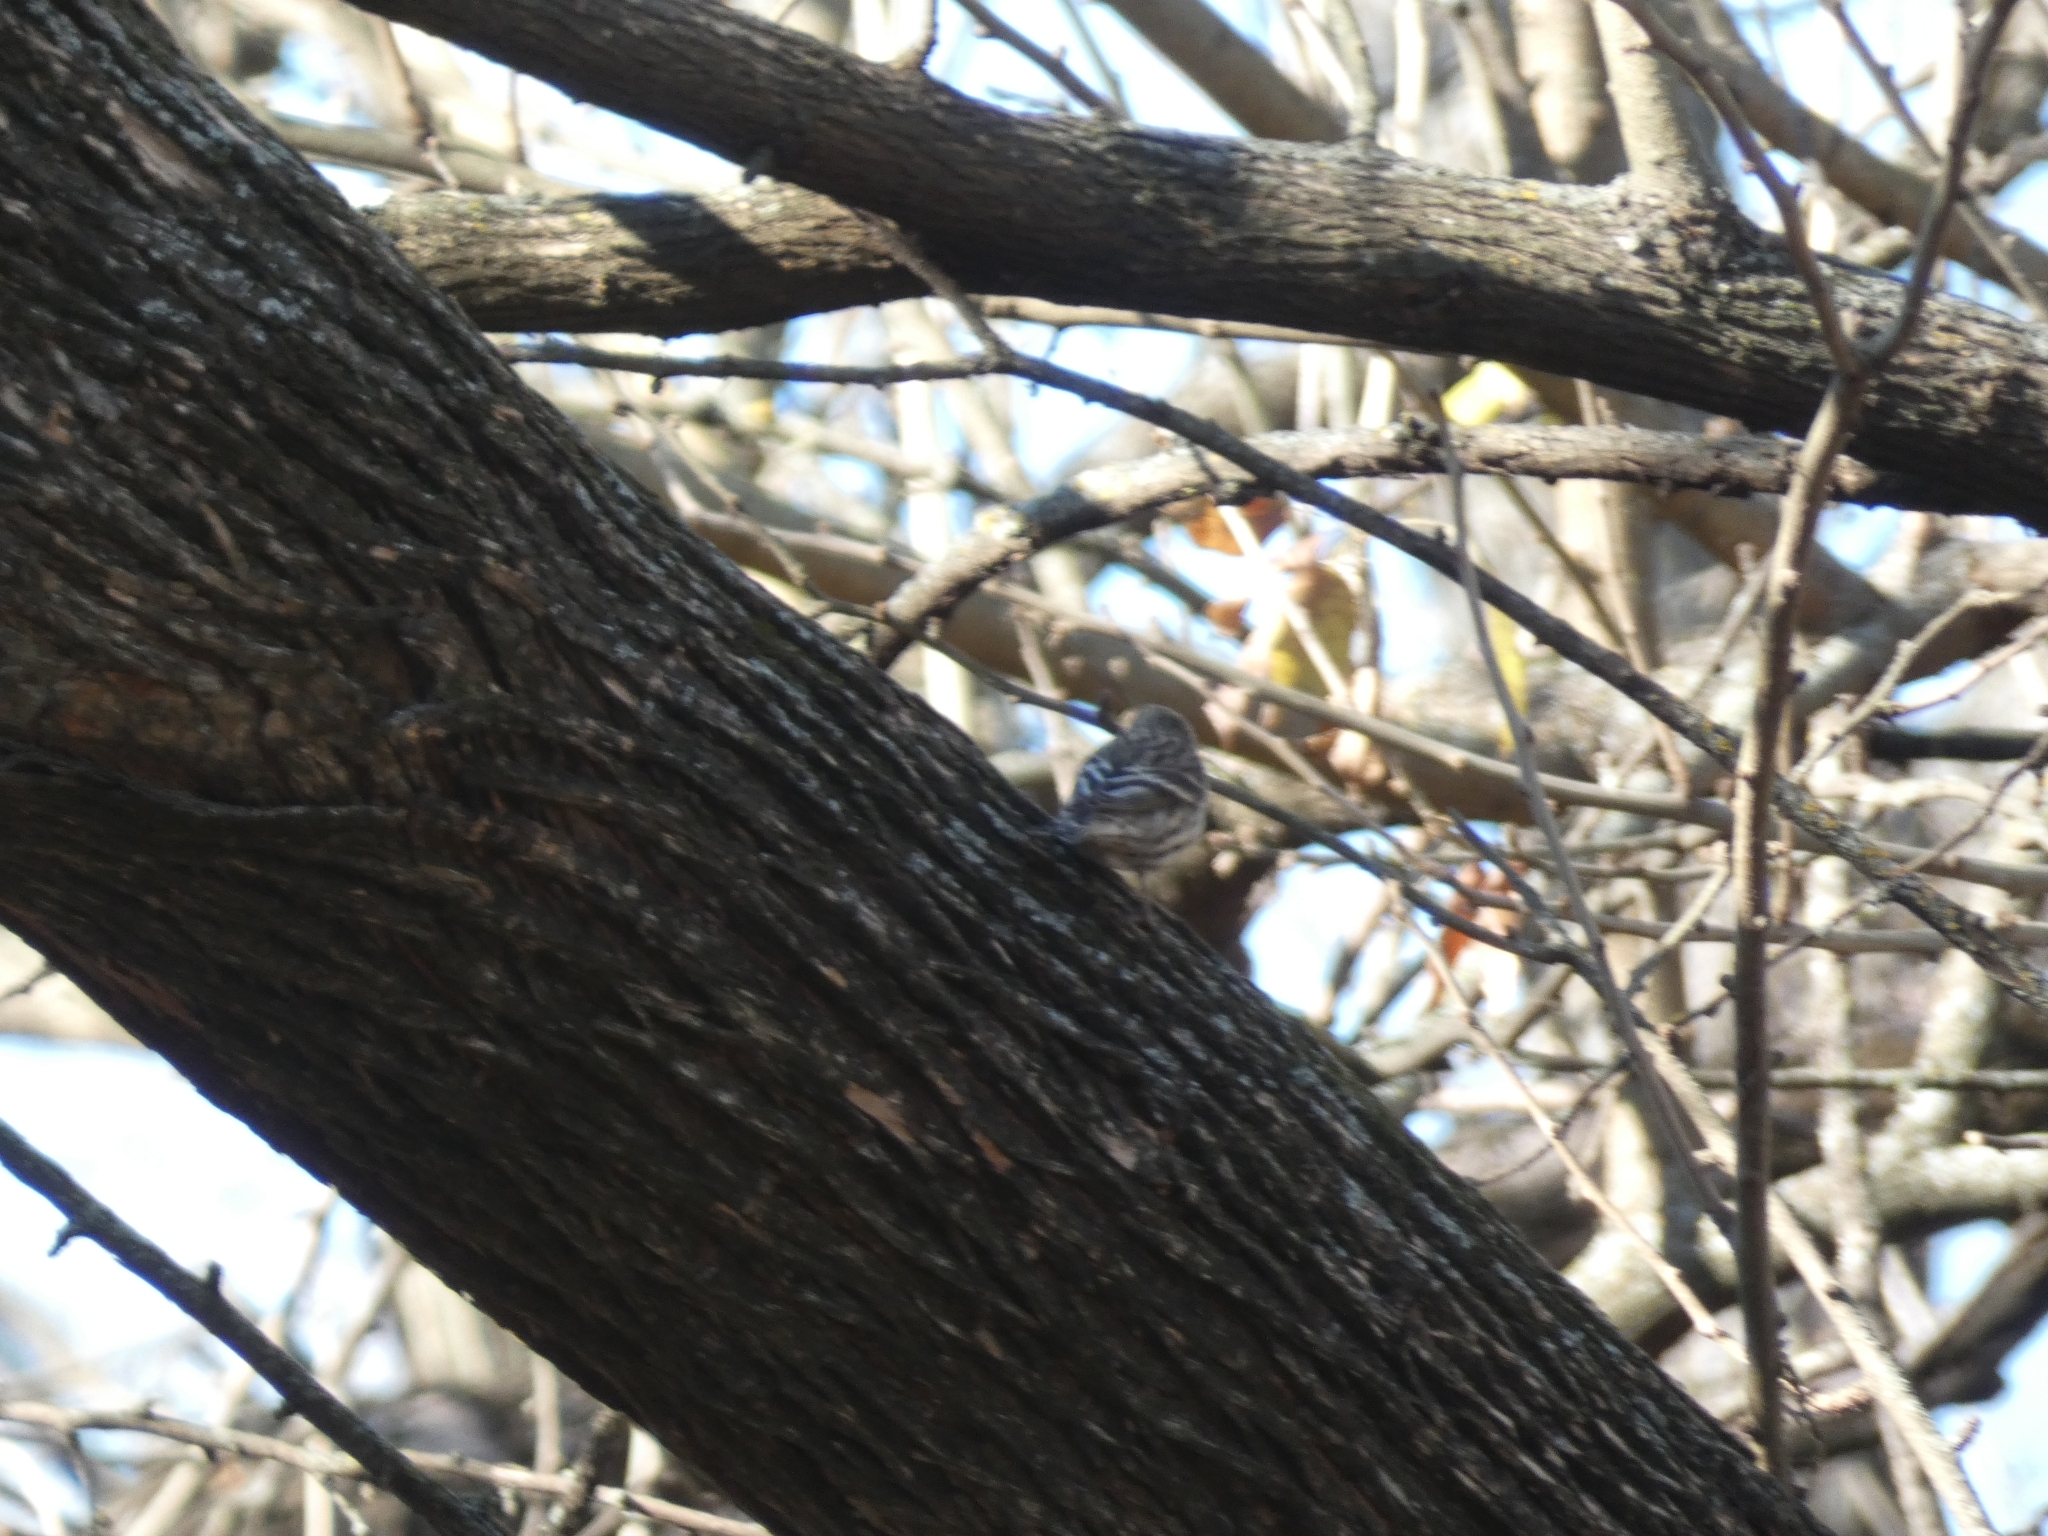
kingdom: Animalia
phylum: Chordata
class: Aves
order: Passeriformes
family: Fringillidae
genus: Spinus
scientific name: Spinus pinus
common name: Pine siskin
